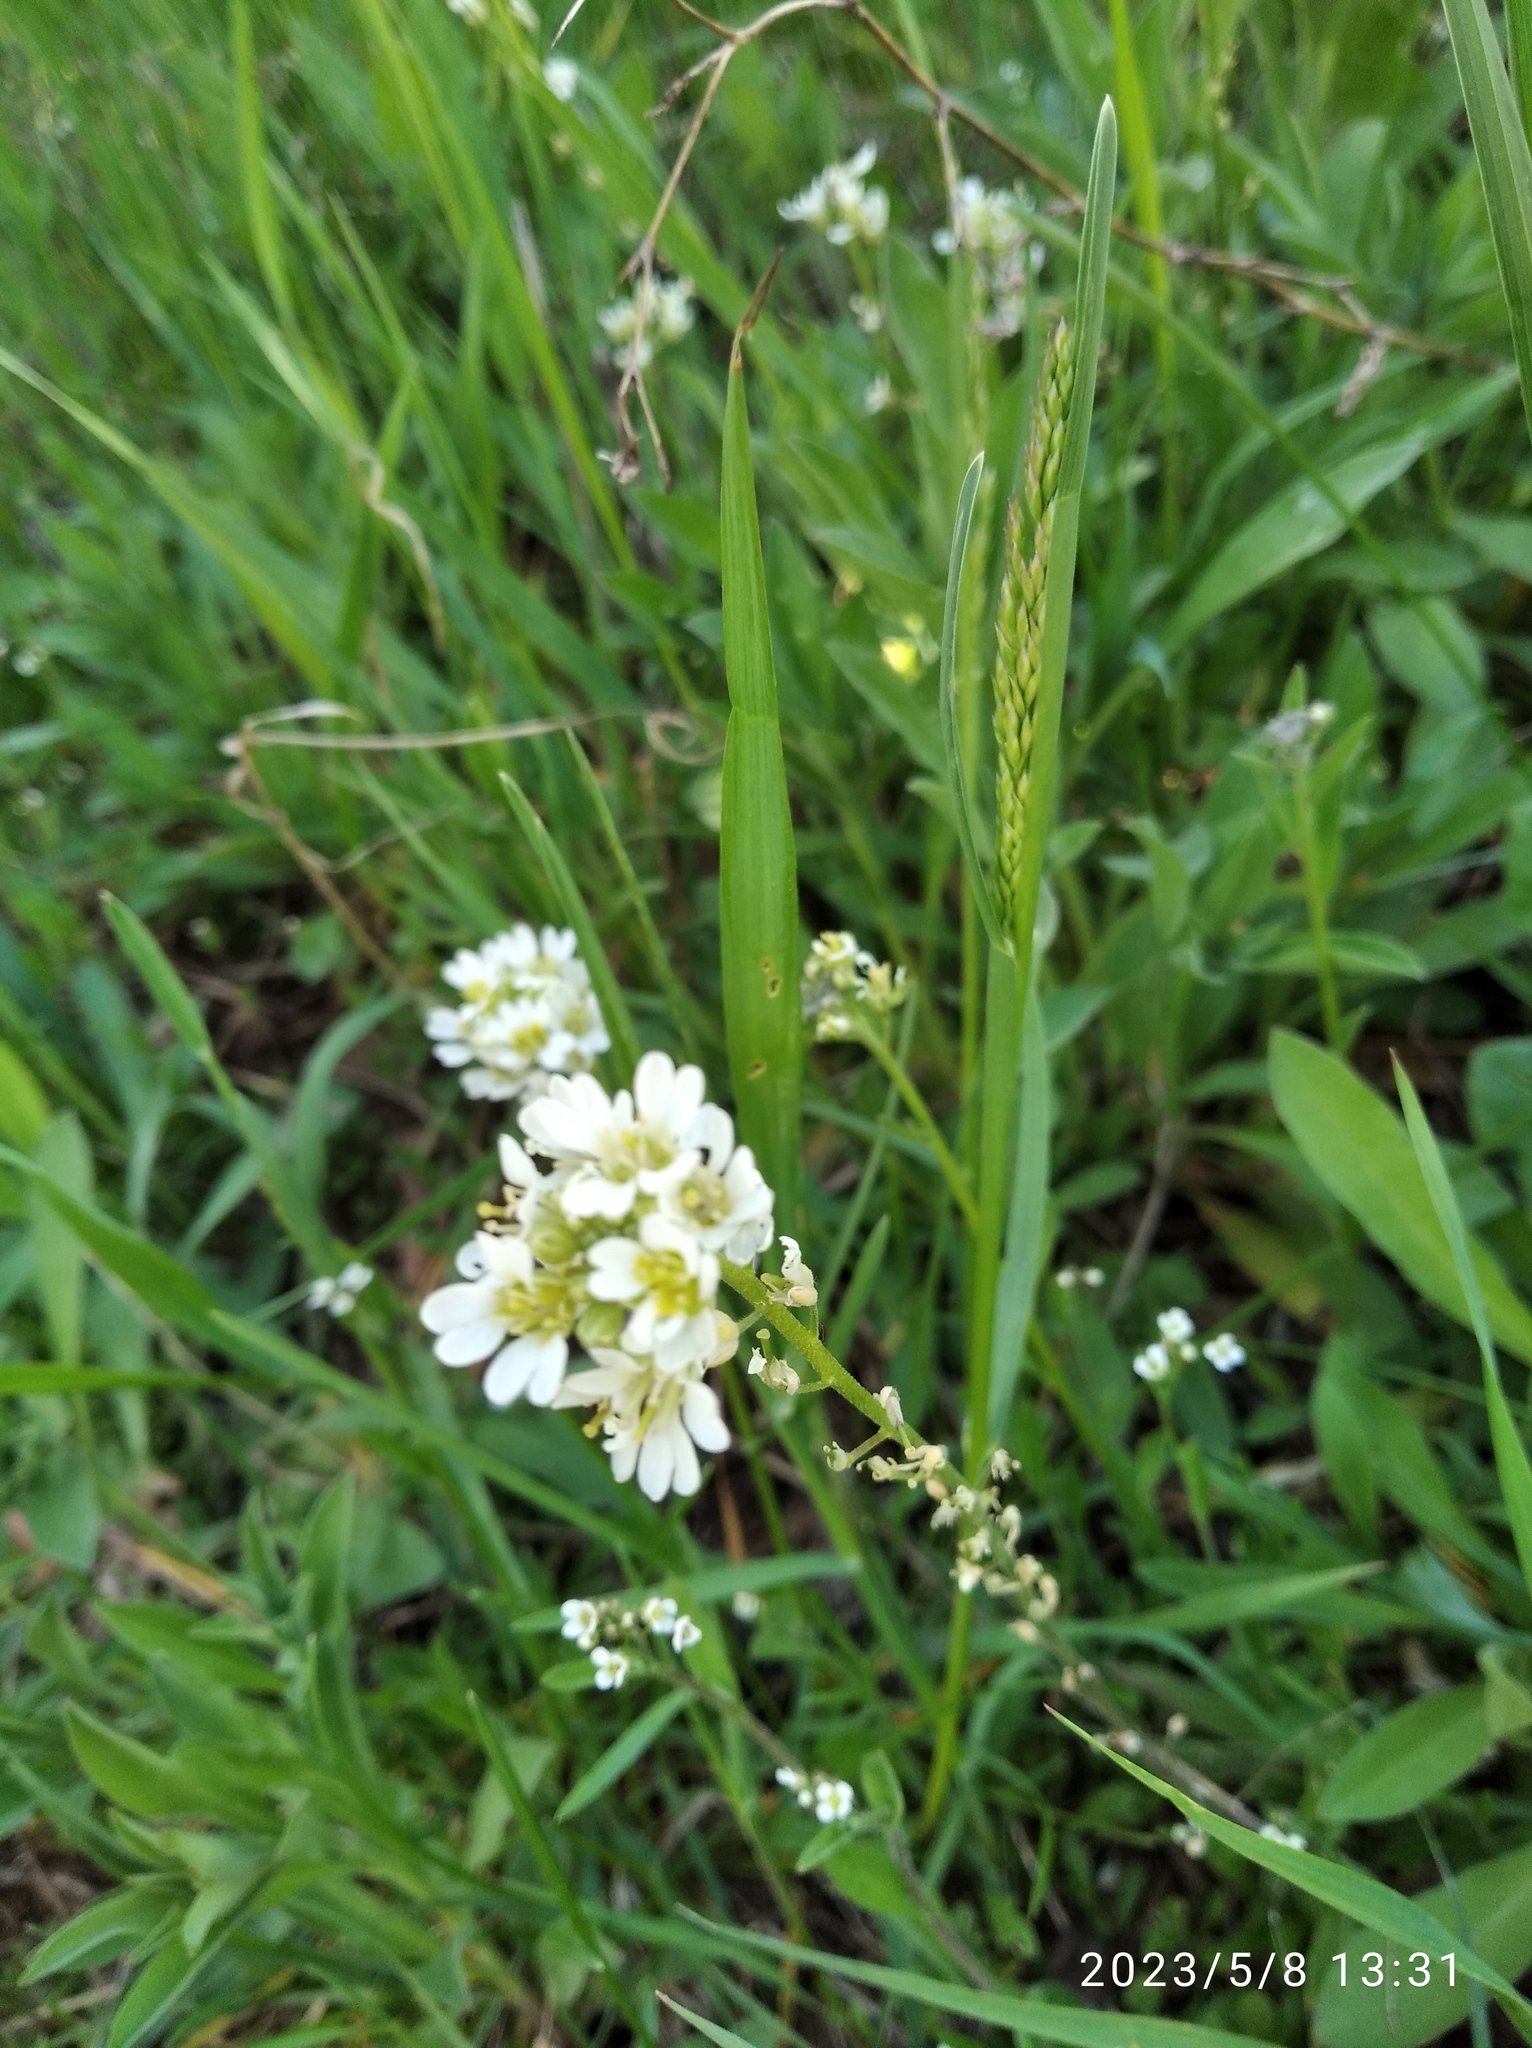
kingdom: Plantae
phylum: Tracheophyta
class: Magnoliopsida
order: Brassicales
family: Brassicaceae
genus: Berteroa
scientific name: Berteroa incana
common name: Hoary alison
